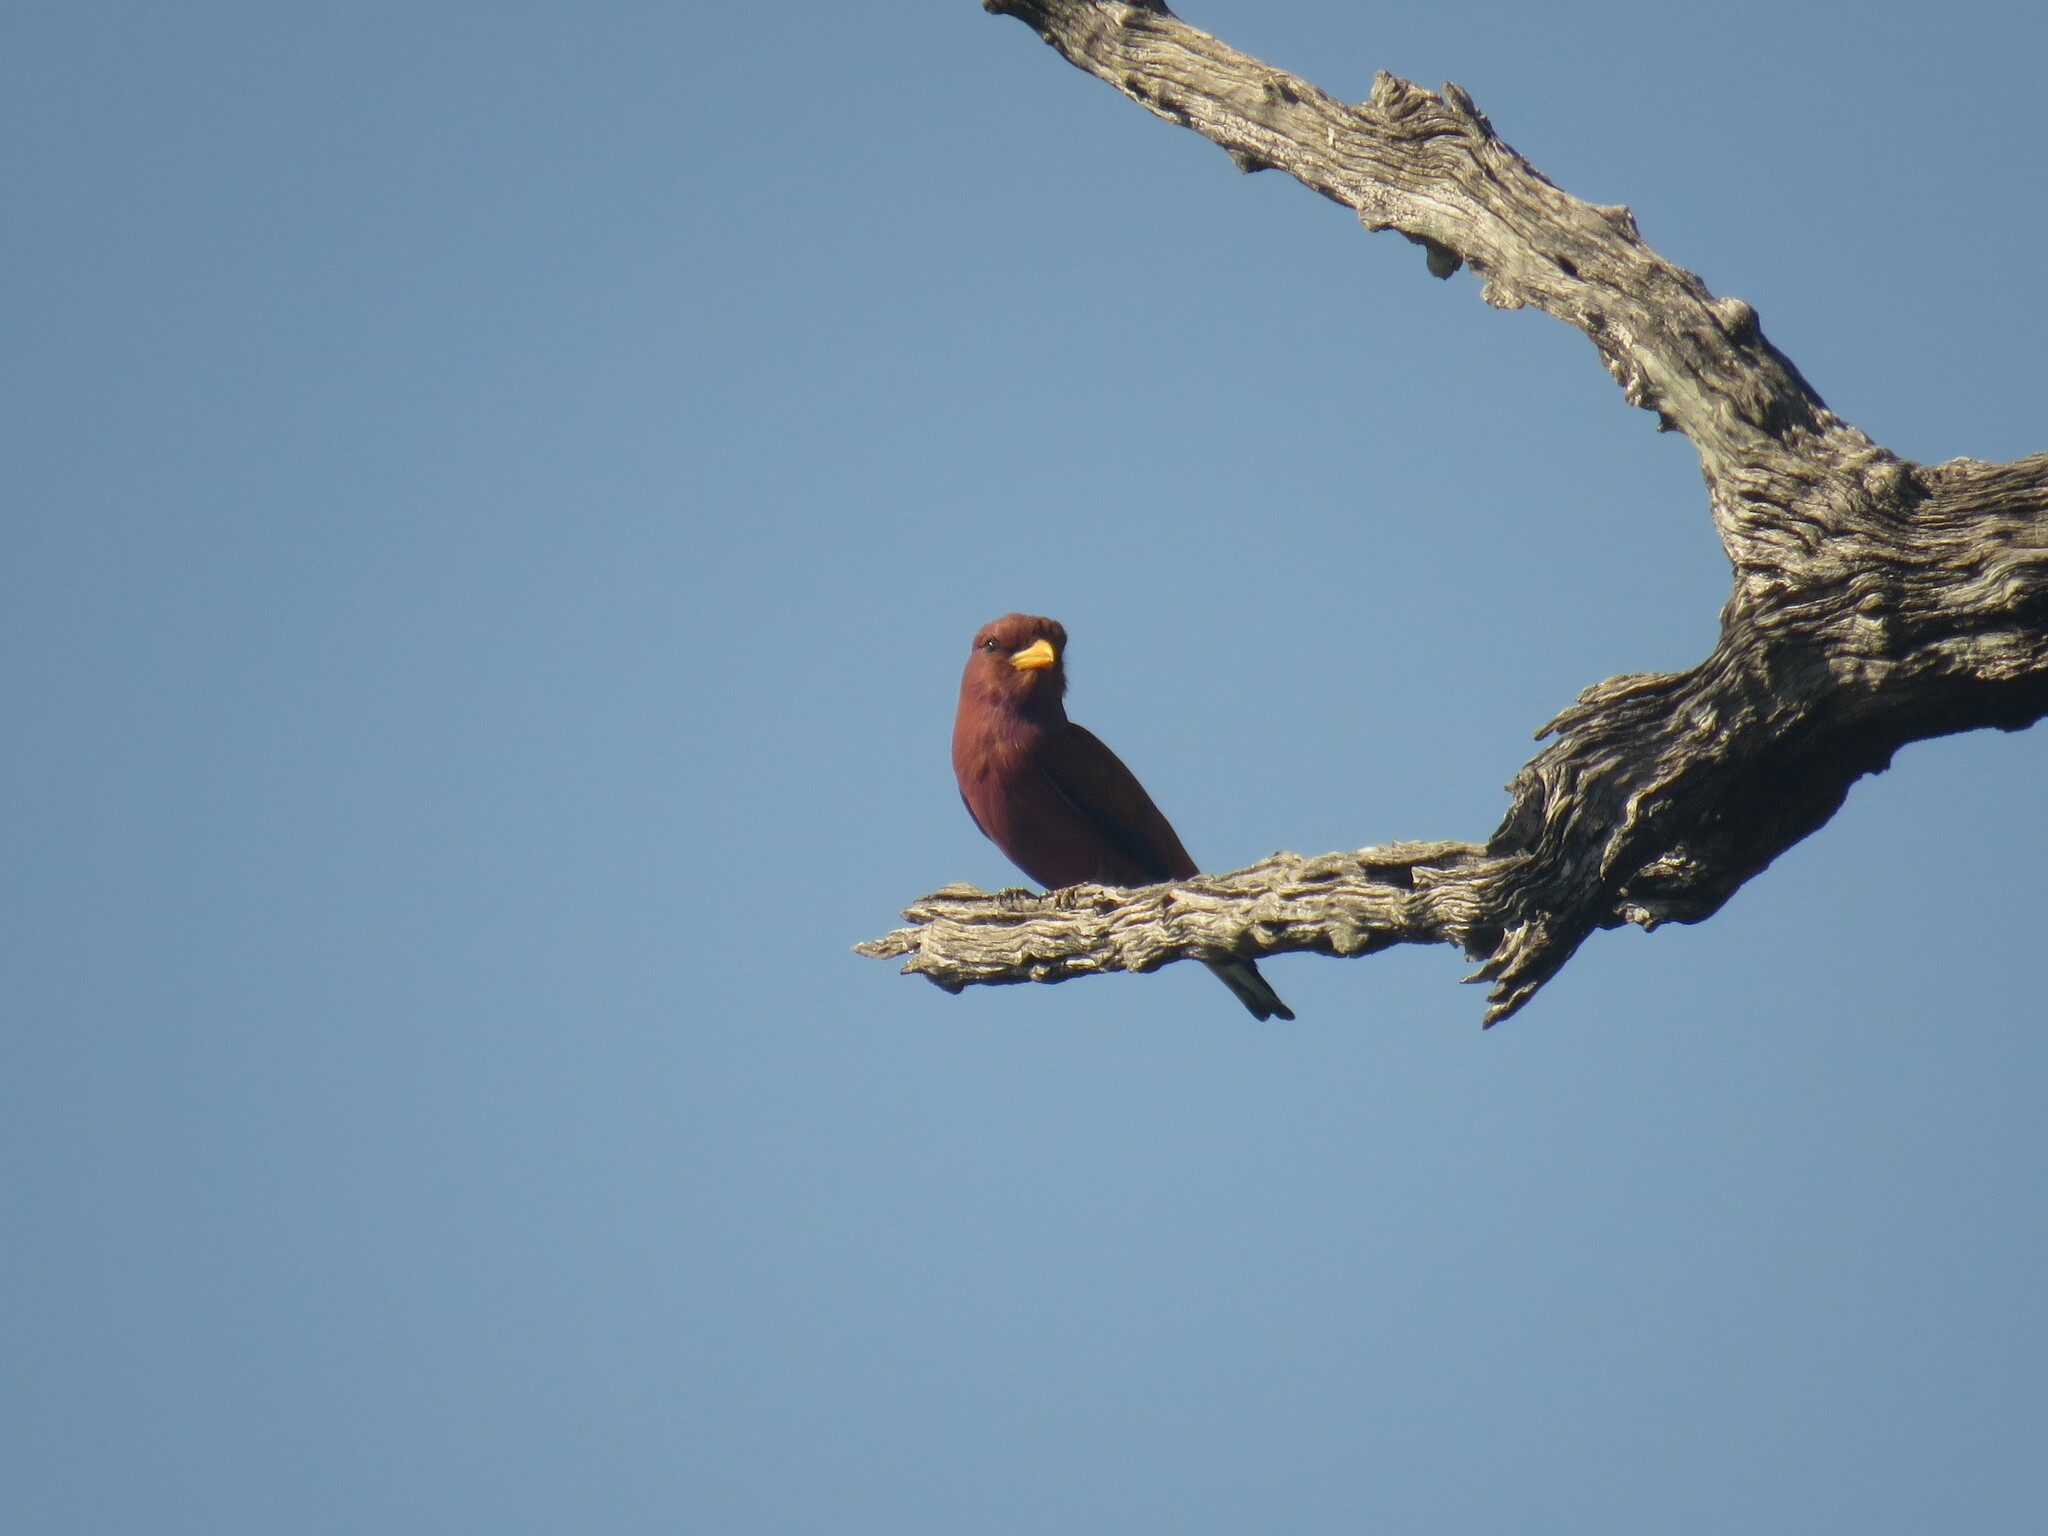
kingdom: Animalia
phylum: Chordata
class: Aves
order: Coraciiformes
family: Coraciidae
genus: Eurystomus
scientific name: Eurystomus glaucurus
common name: Broad-billed roller
